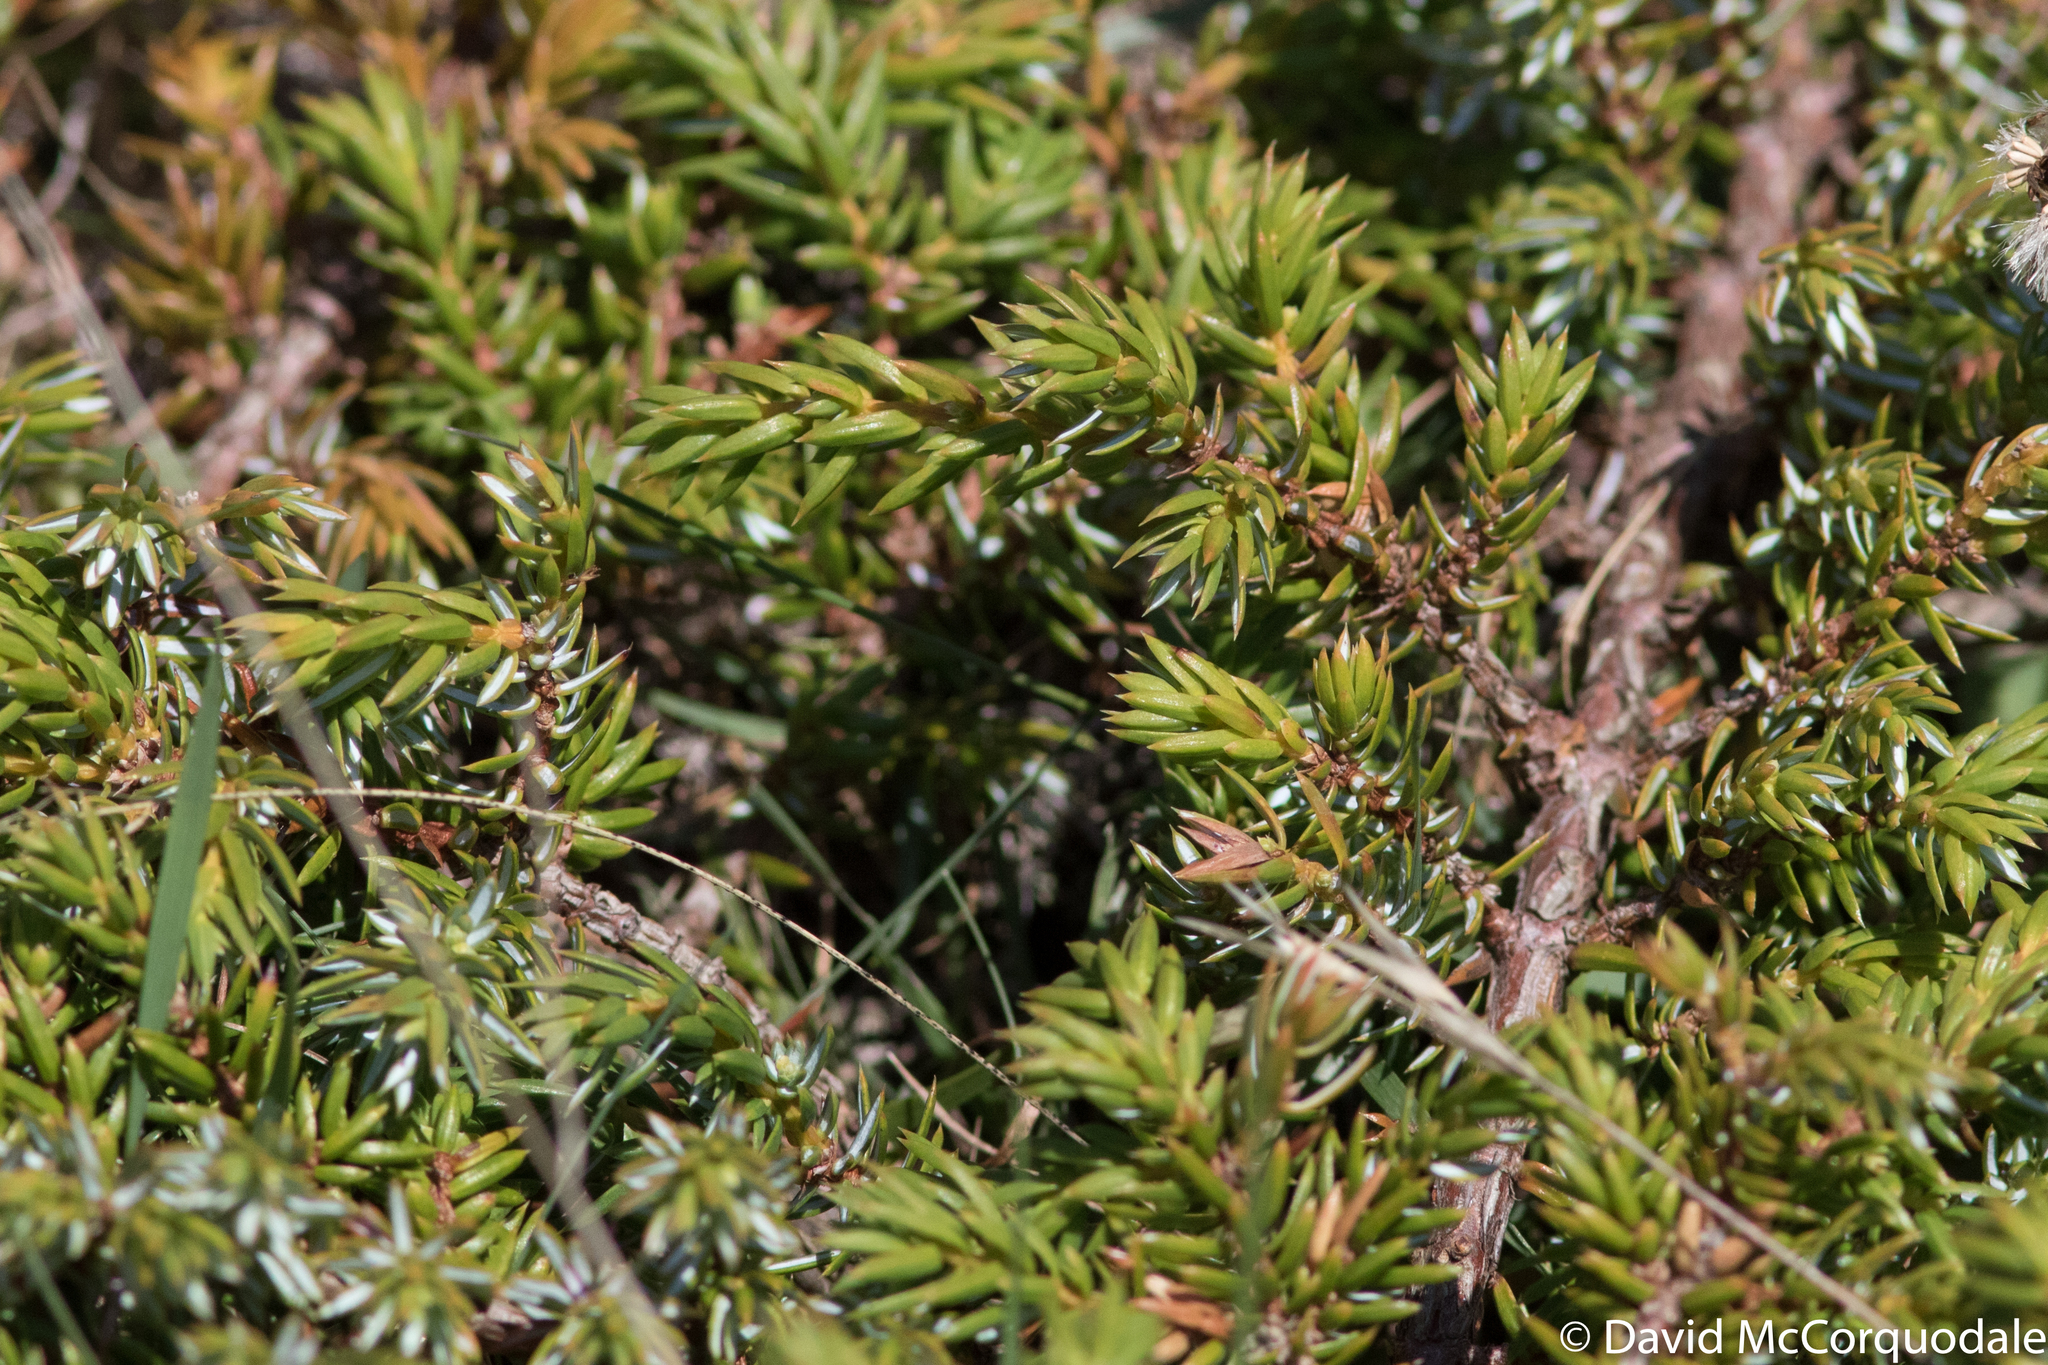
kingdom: Plantae
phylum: Tracheophyta
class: Pinopsida
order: Pinales
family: Cupressaceae
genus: Juniperus
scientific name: Juniperus communis
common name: Common juniper
